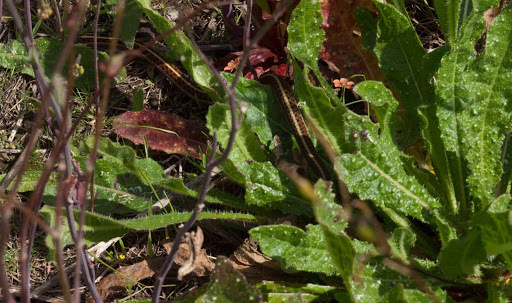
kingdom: Animalia
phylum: Chordata
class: Squamata
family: Colubridae
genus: Thamnophis
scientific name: Thamnophis elegans
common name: Western terrestrial garter snake
